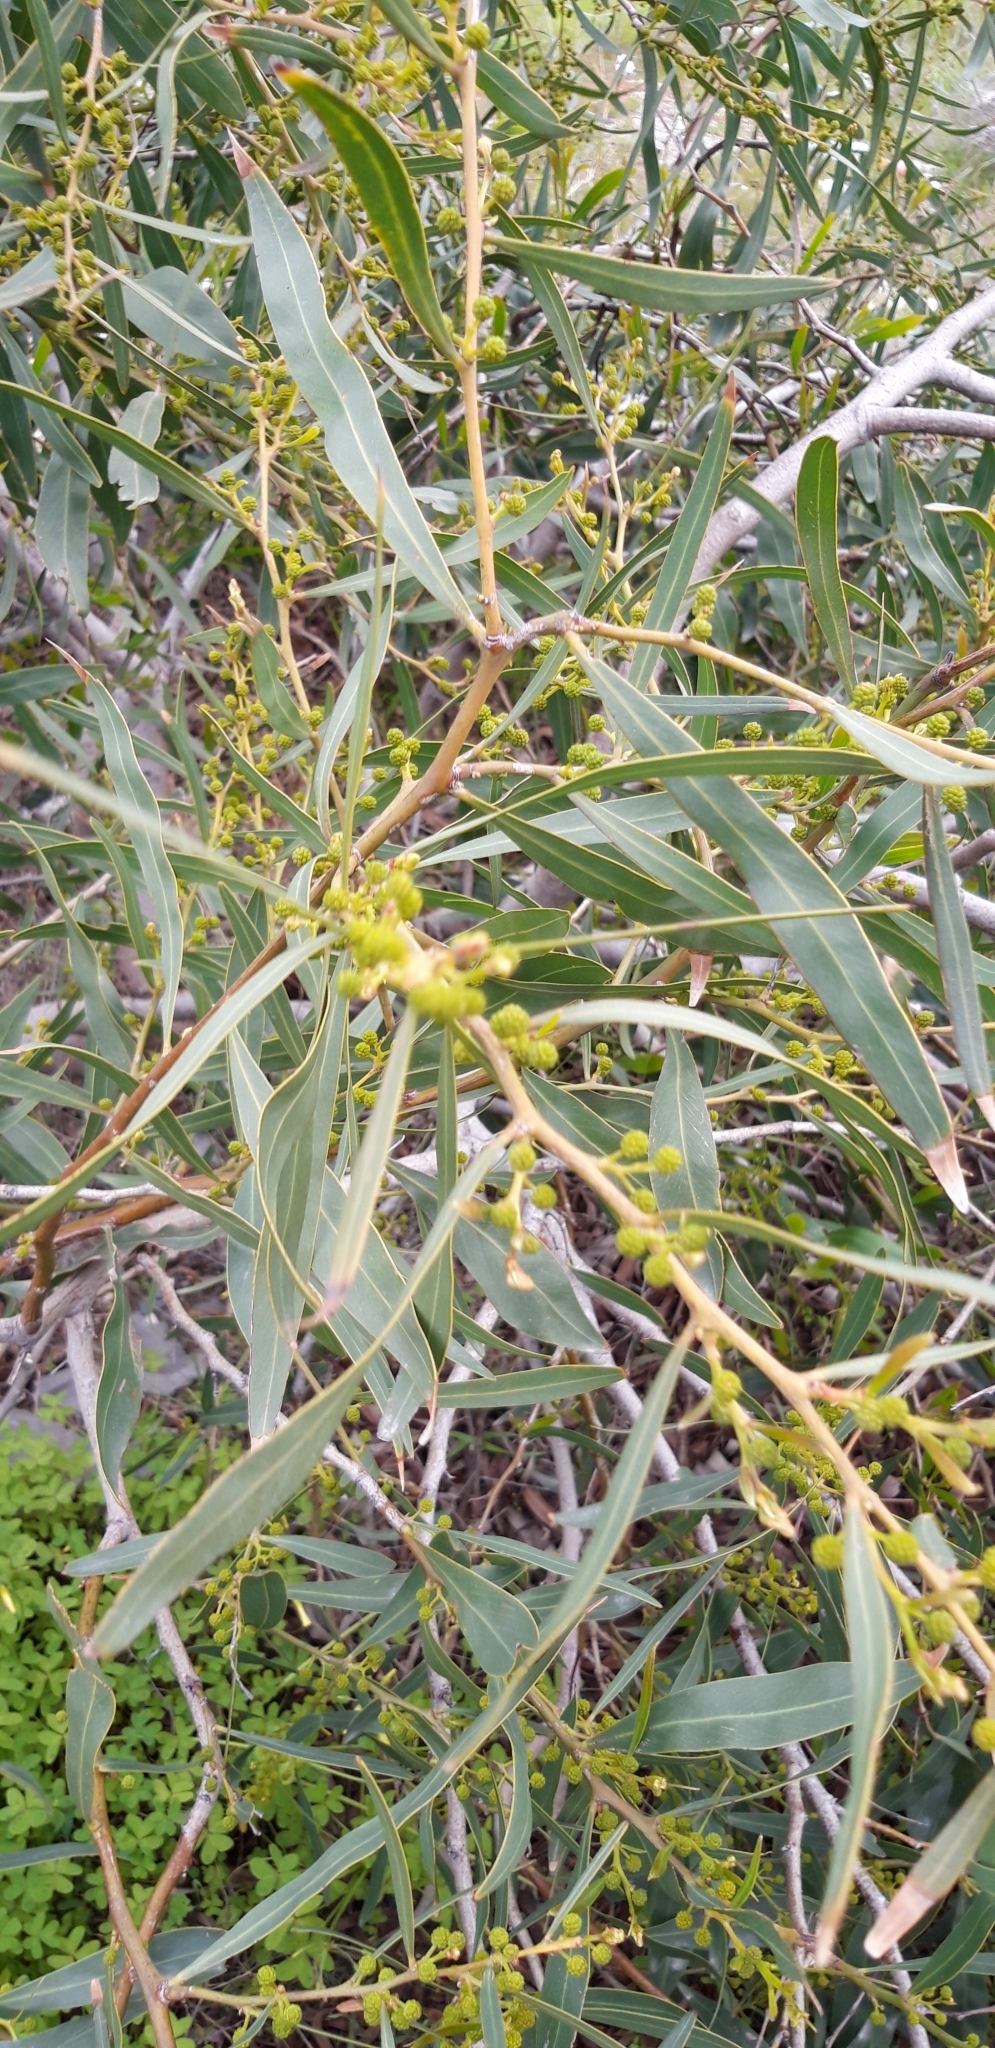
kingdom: Plantae
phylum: Tracheophyta
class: Magnoliopsida
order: Fabales
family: Fabaceae
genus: Acacia
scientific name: Acacia saligna
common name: Orange wattle
